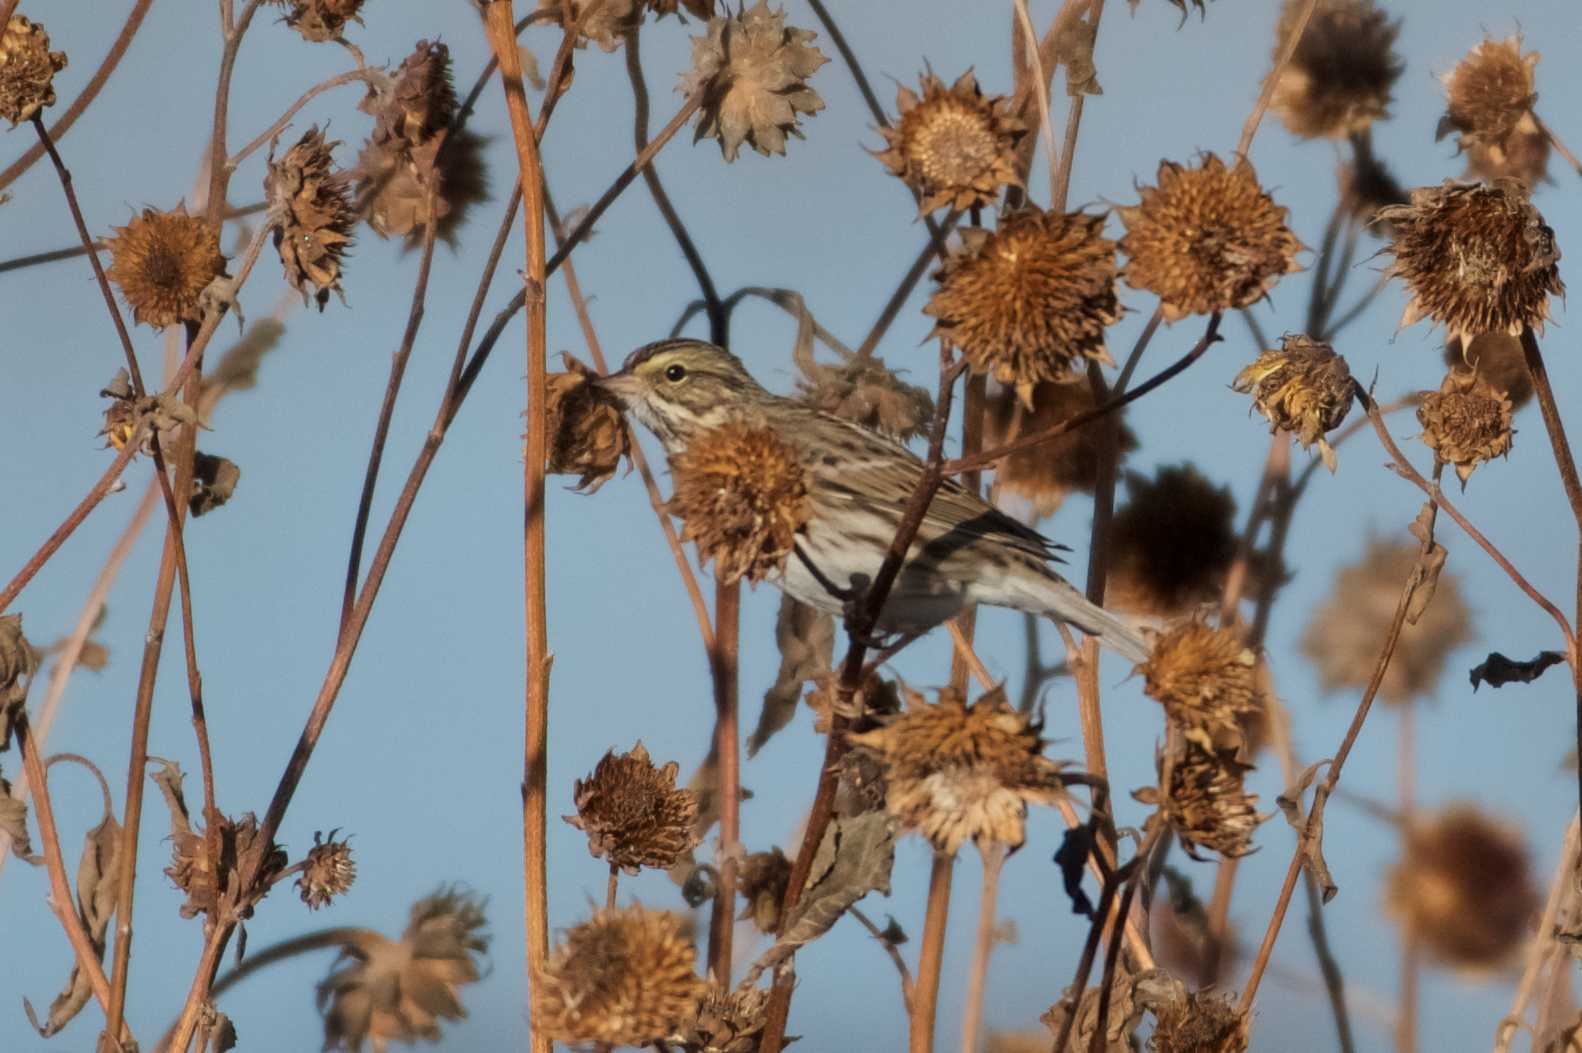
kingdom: Animalia
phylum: Chordata
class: Aves
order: Passeriformes
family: Passerellidae
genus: Passerculus
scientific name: Passerculus sandwichensis
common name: Savannah sparrow
